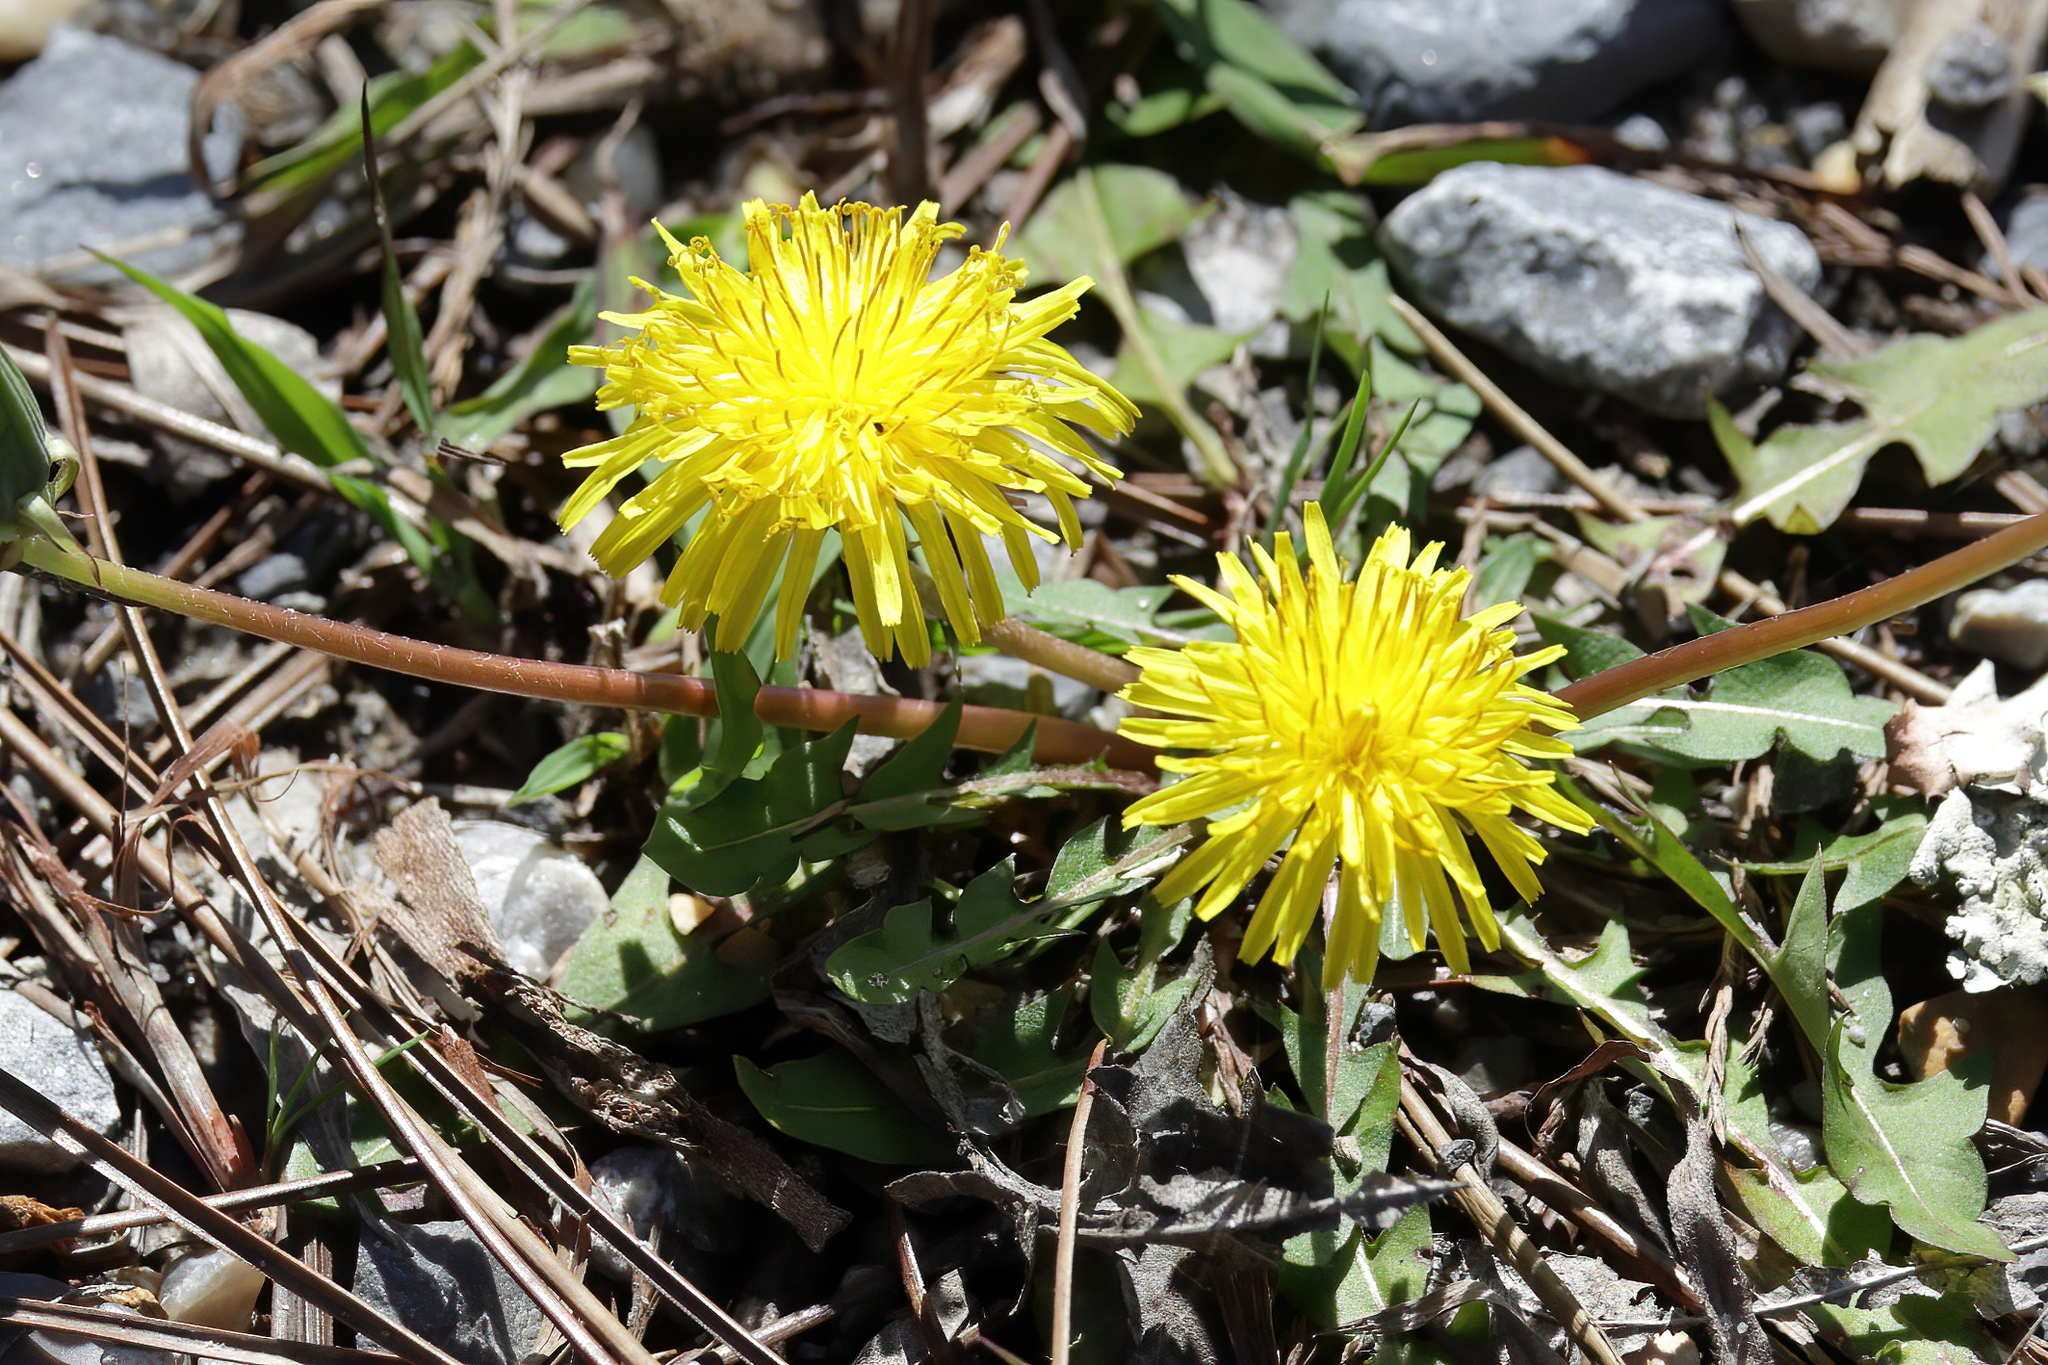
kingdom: Plantae
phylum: Tracheophyta
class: Magnoliopsida
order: Asterales
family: Asteraceae
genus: Taraxacum
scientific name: Taraxacum officinale
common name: Common dandelion
